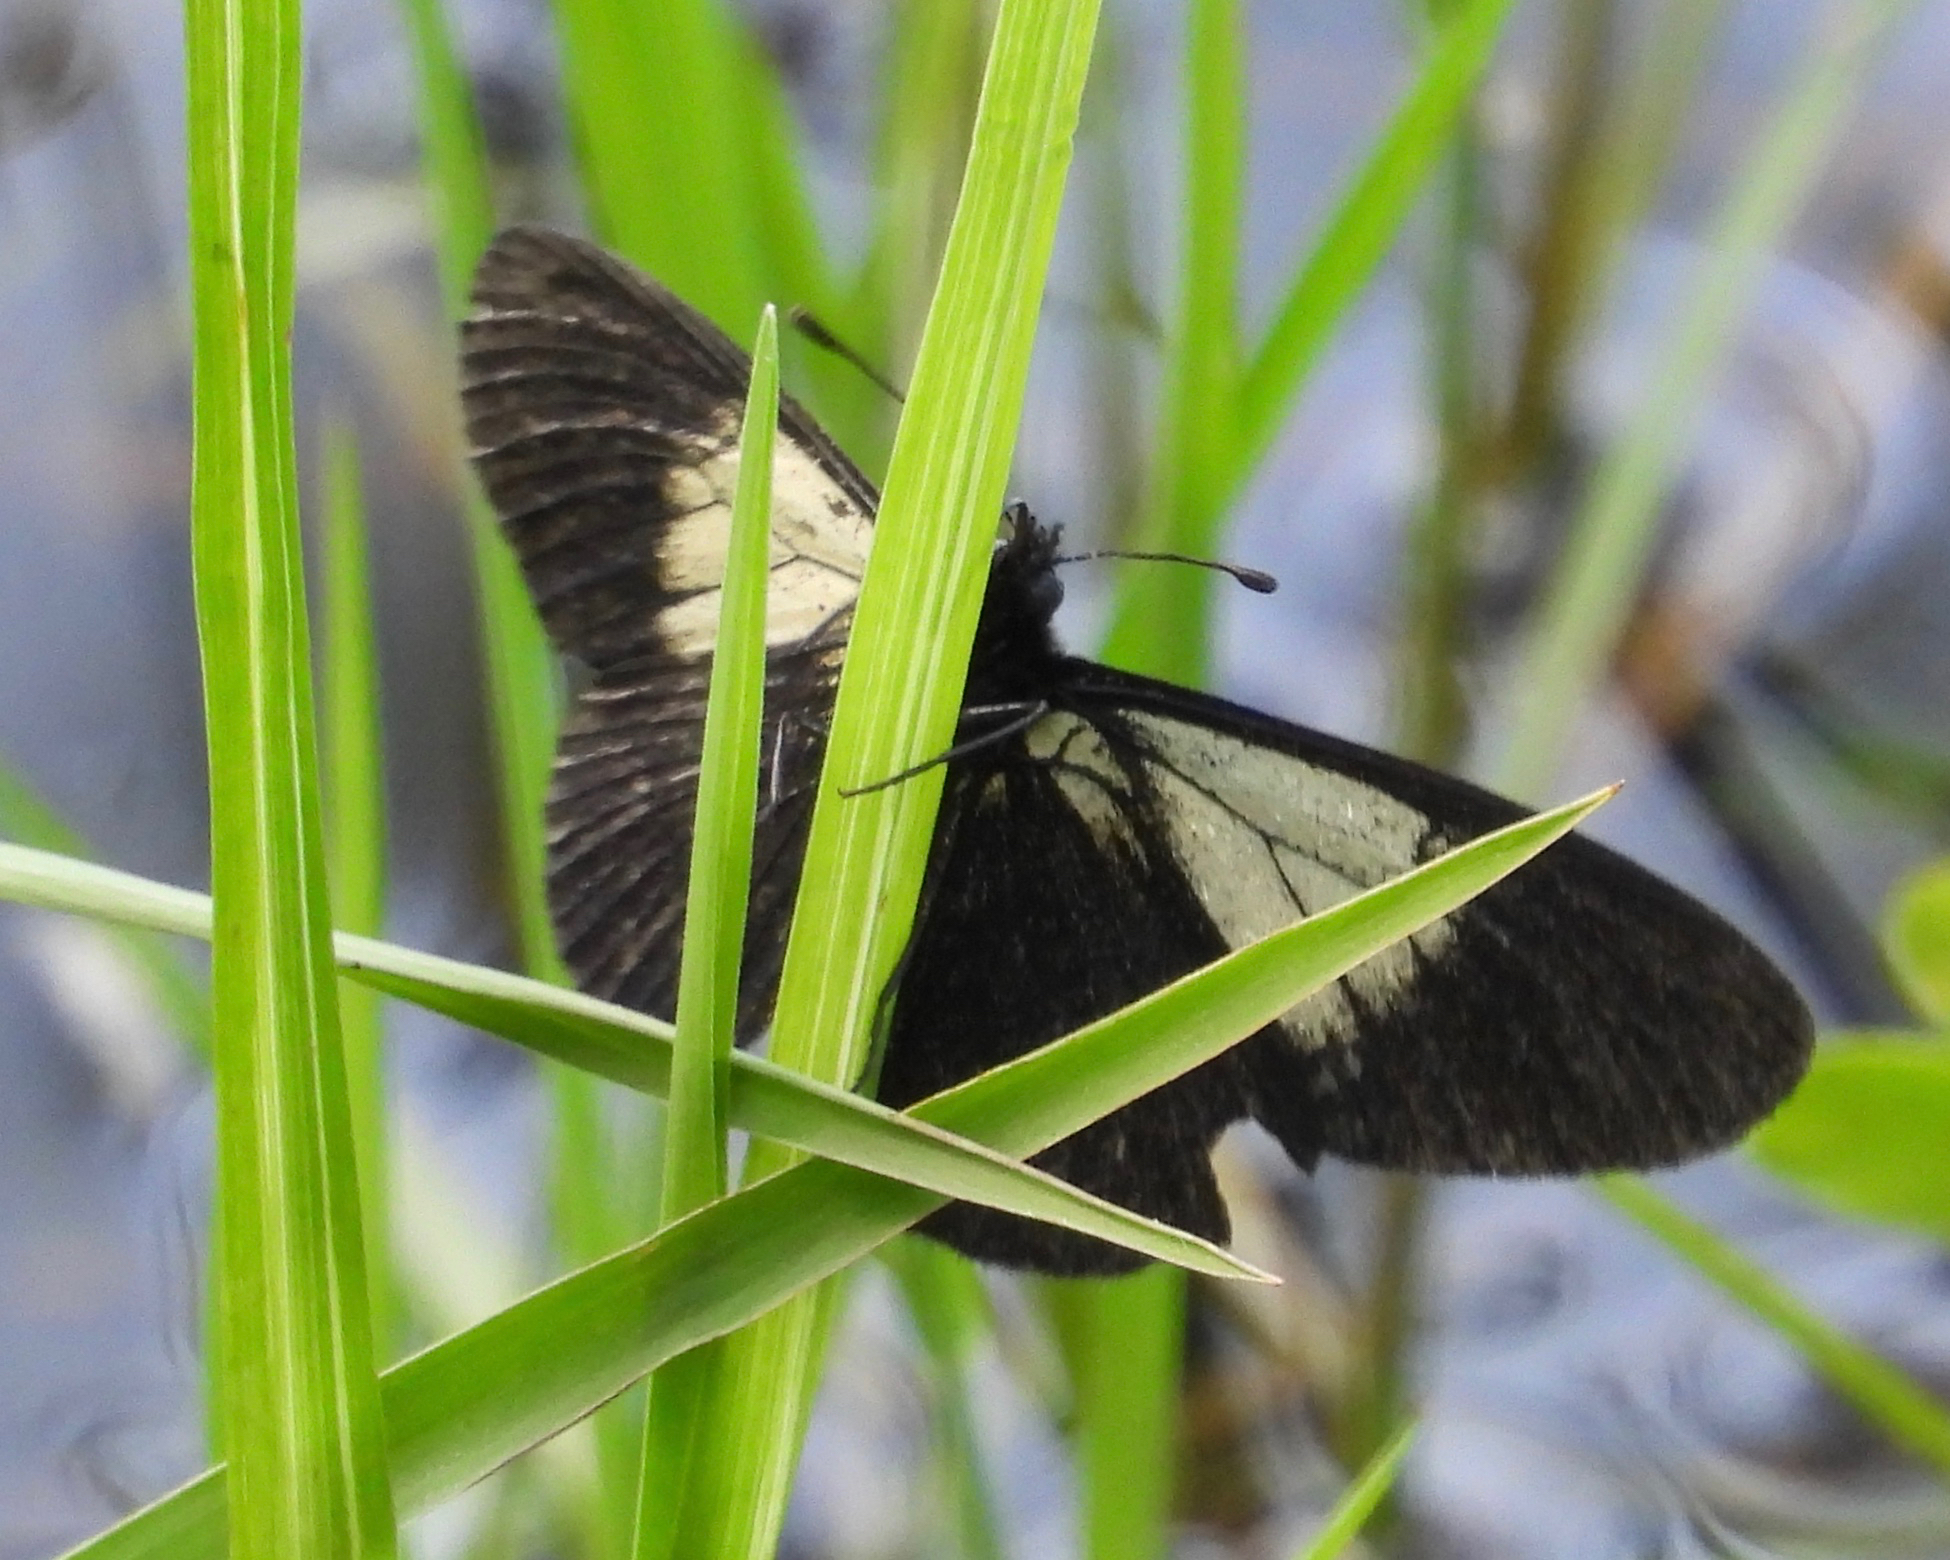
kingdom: Animalia
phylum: Arthropoda
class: Insecta
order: Lepidoptera
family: Nymphalidae
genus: Acraea
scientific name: Acraea Altinote ozomene
